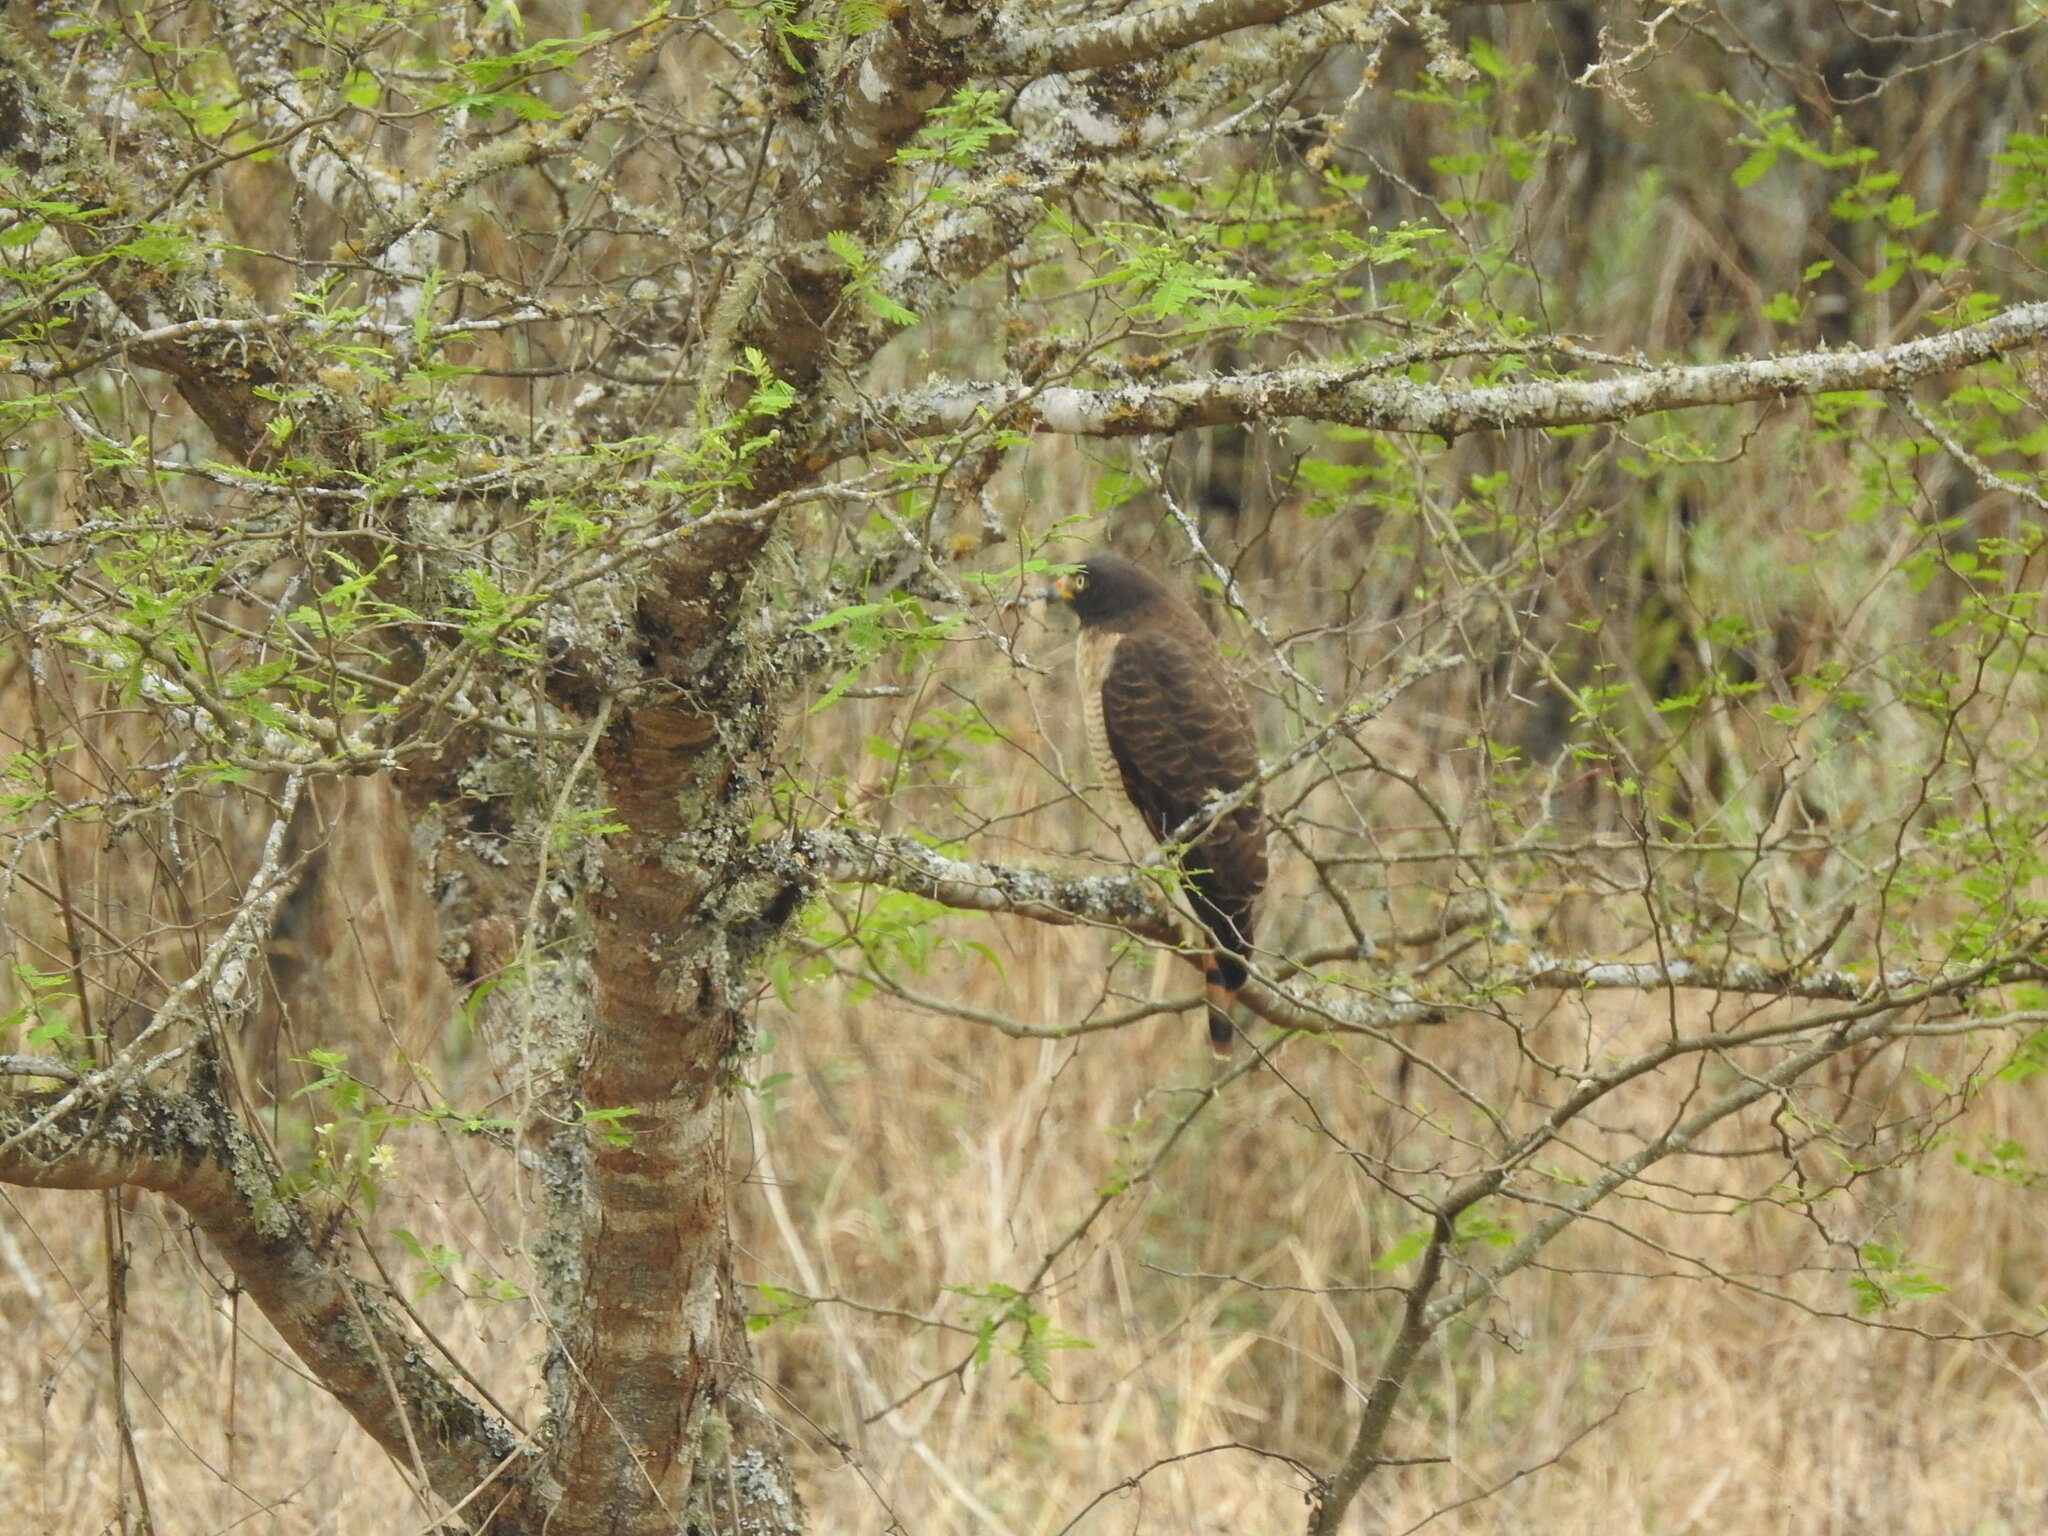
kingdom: Animalia
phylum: Chordata
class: Aves
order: Accipitriformes
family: Accipitridae
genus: Rupornis
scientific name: Rupornis magnirostris
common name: Roadside hawk
